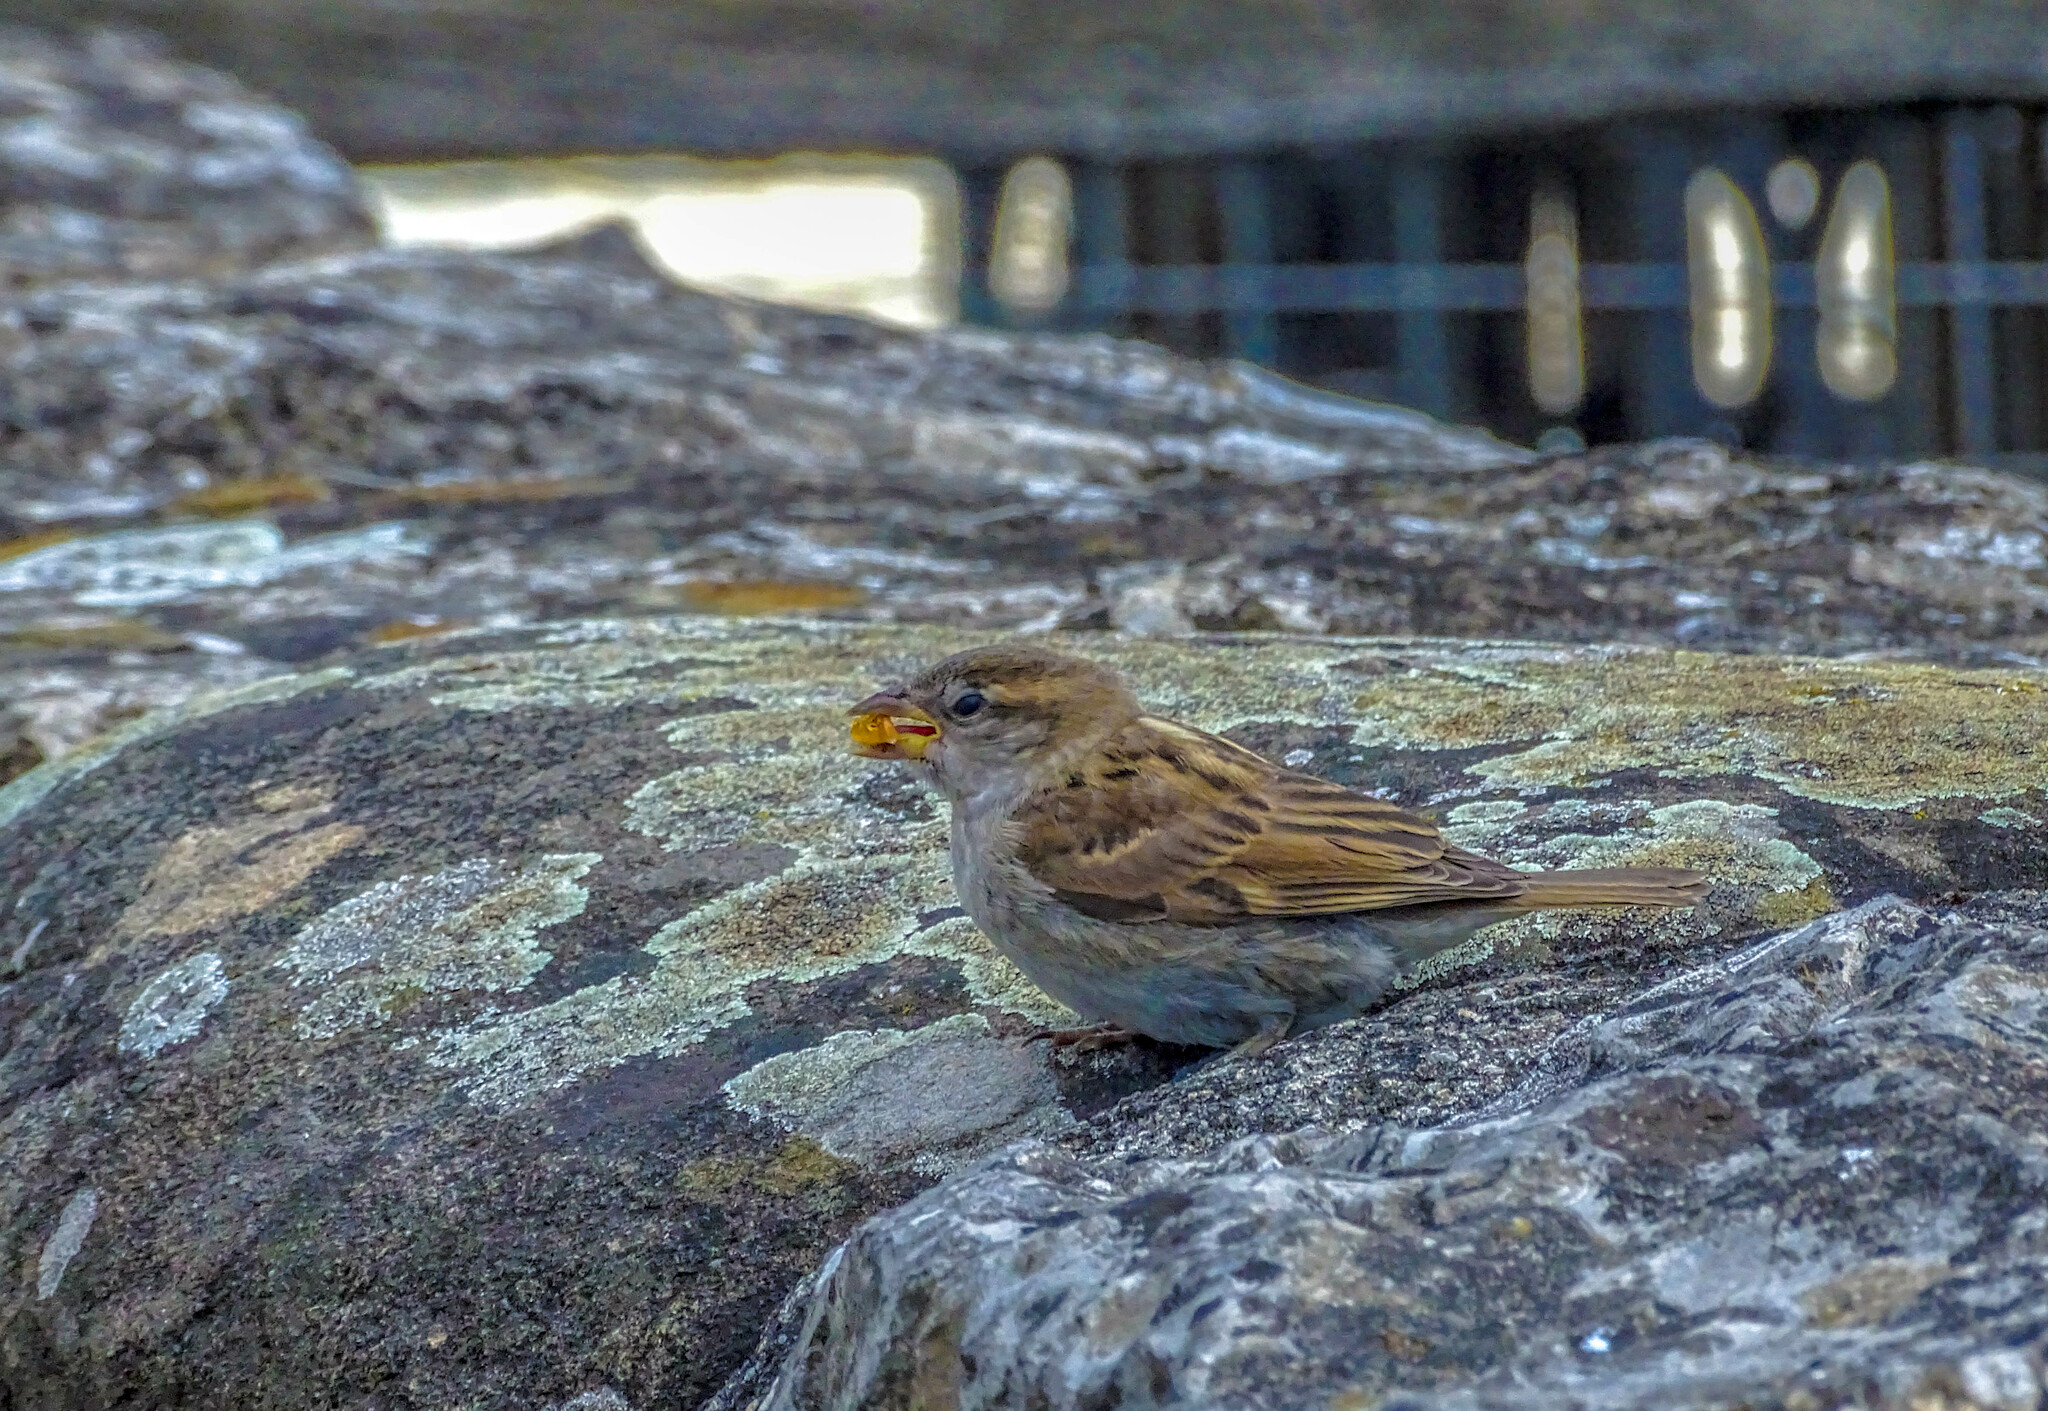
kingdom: Animalia
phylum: Chordata
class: Aves
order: Passeriformes
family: Passeridae
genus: Passer
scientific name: Passer italiae
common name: Italian sparrow
